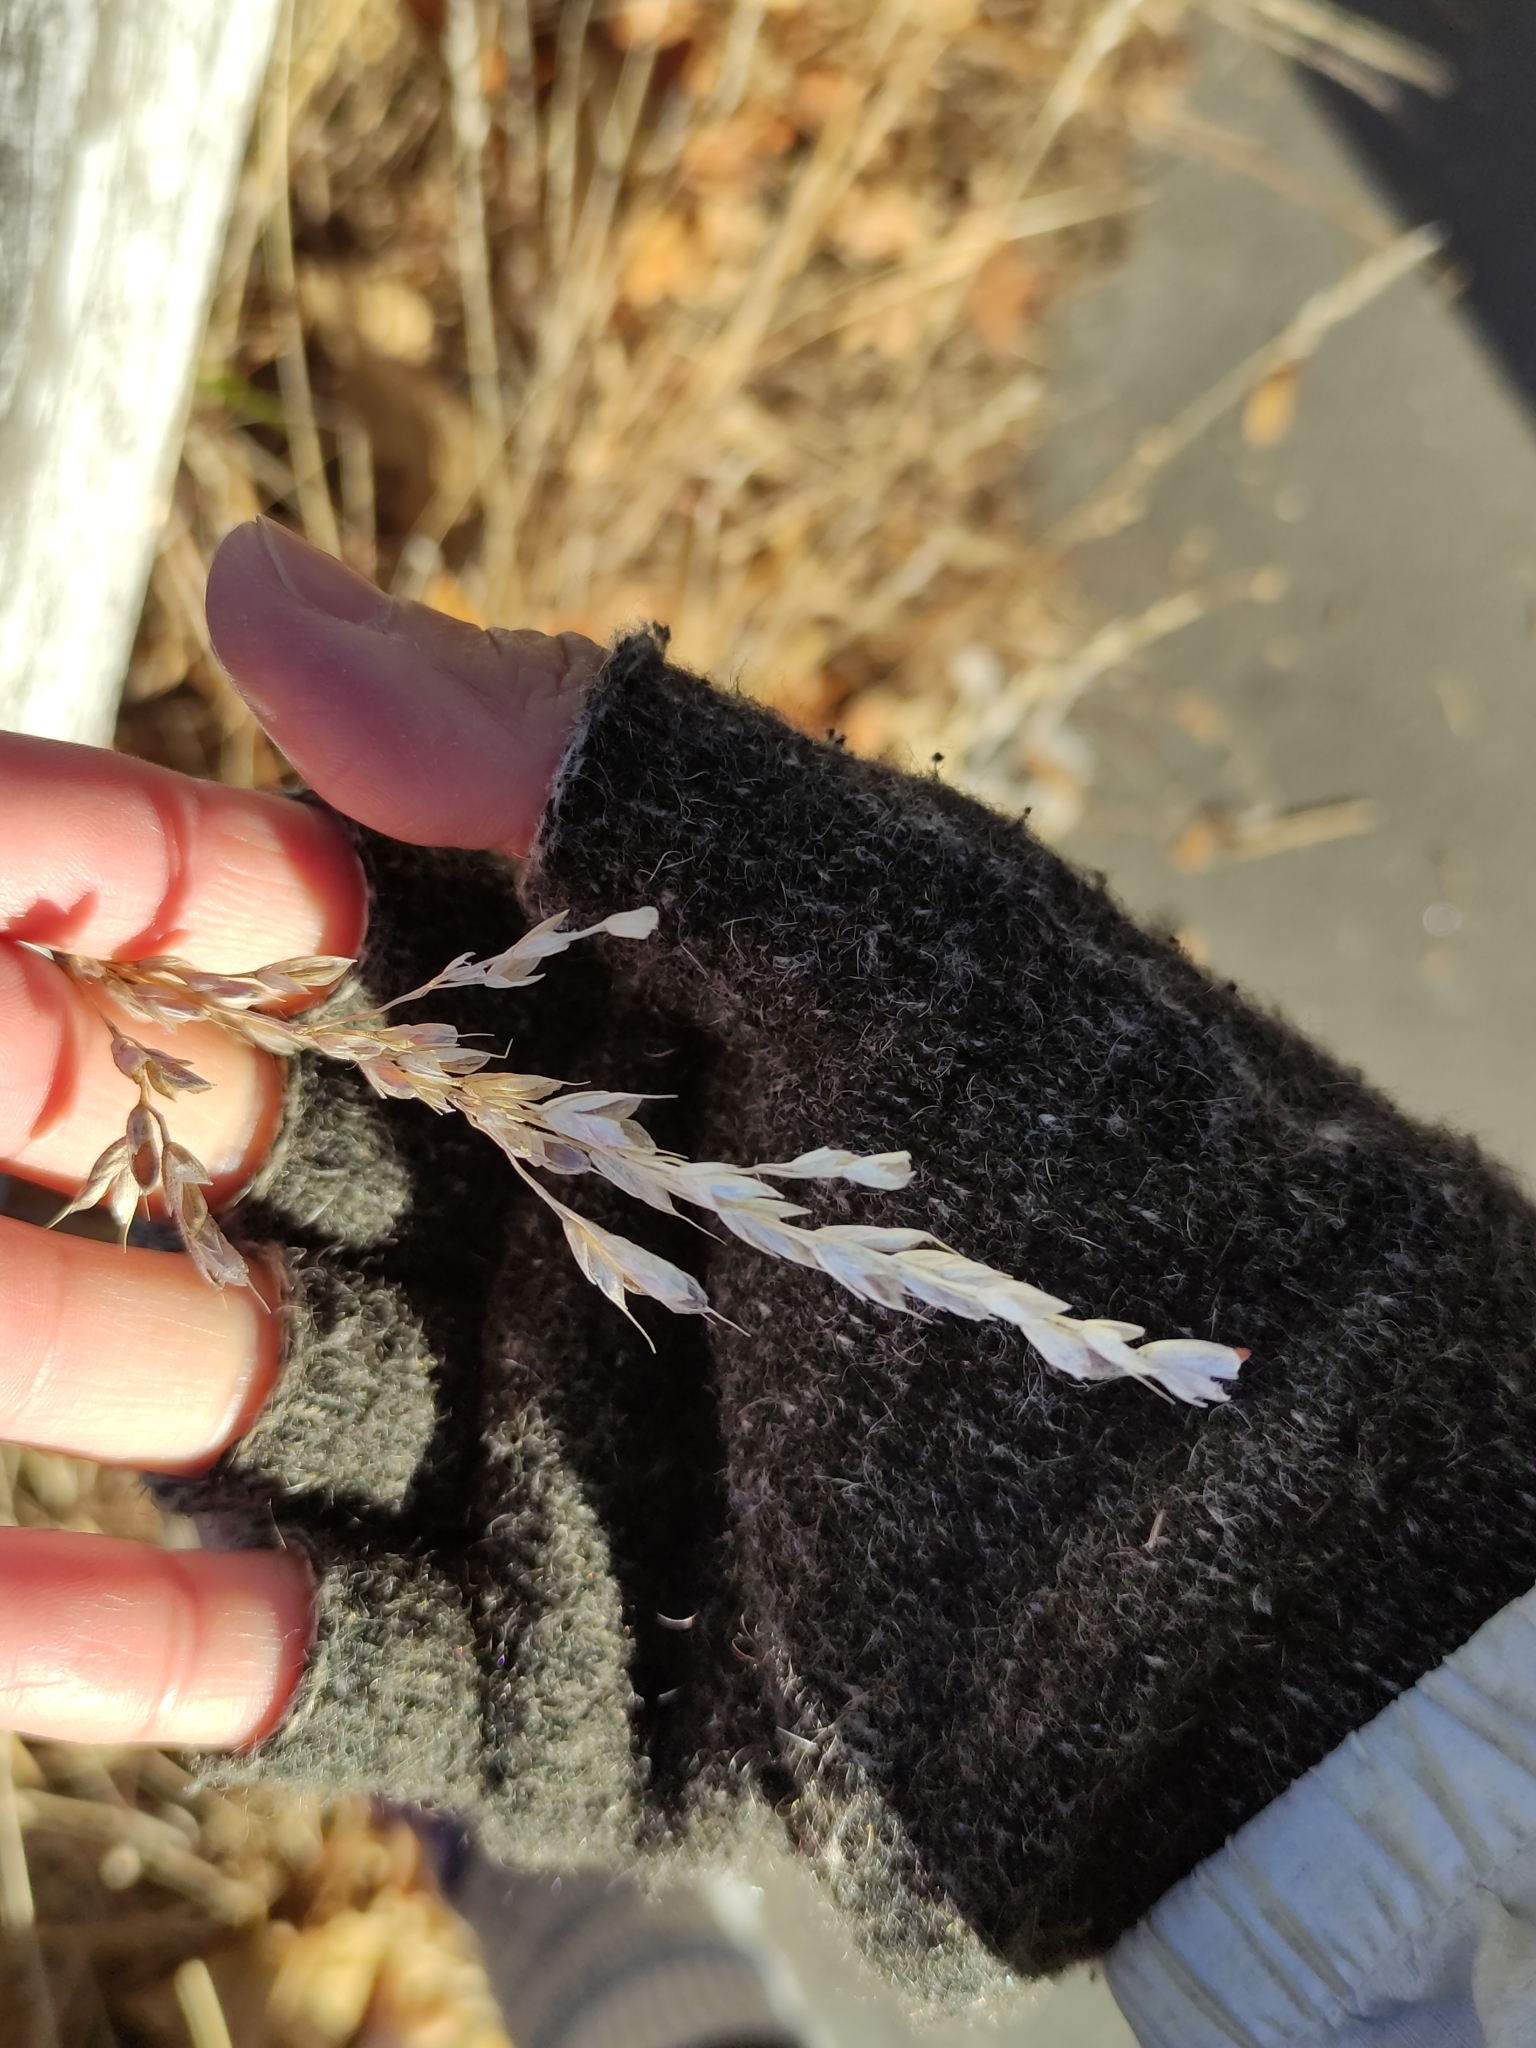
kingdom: Plantae
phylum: Tracheophyta
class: Liliopsida
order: Poales
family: Poaceae
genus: Bromus
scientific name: Bromus hordeaceus
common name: Soft brome
